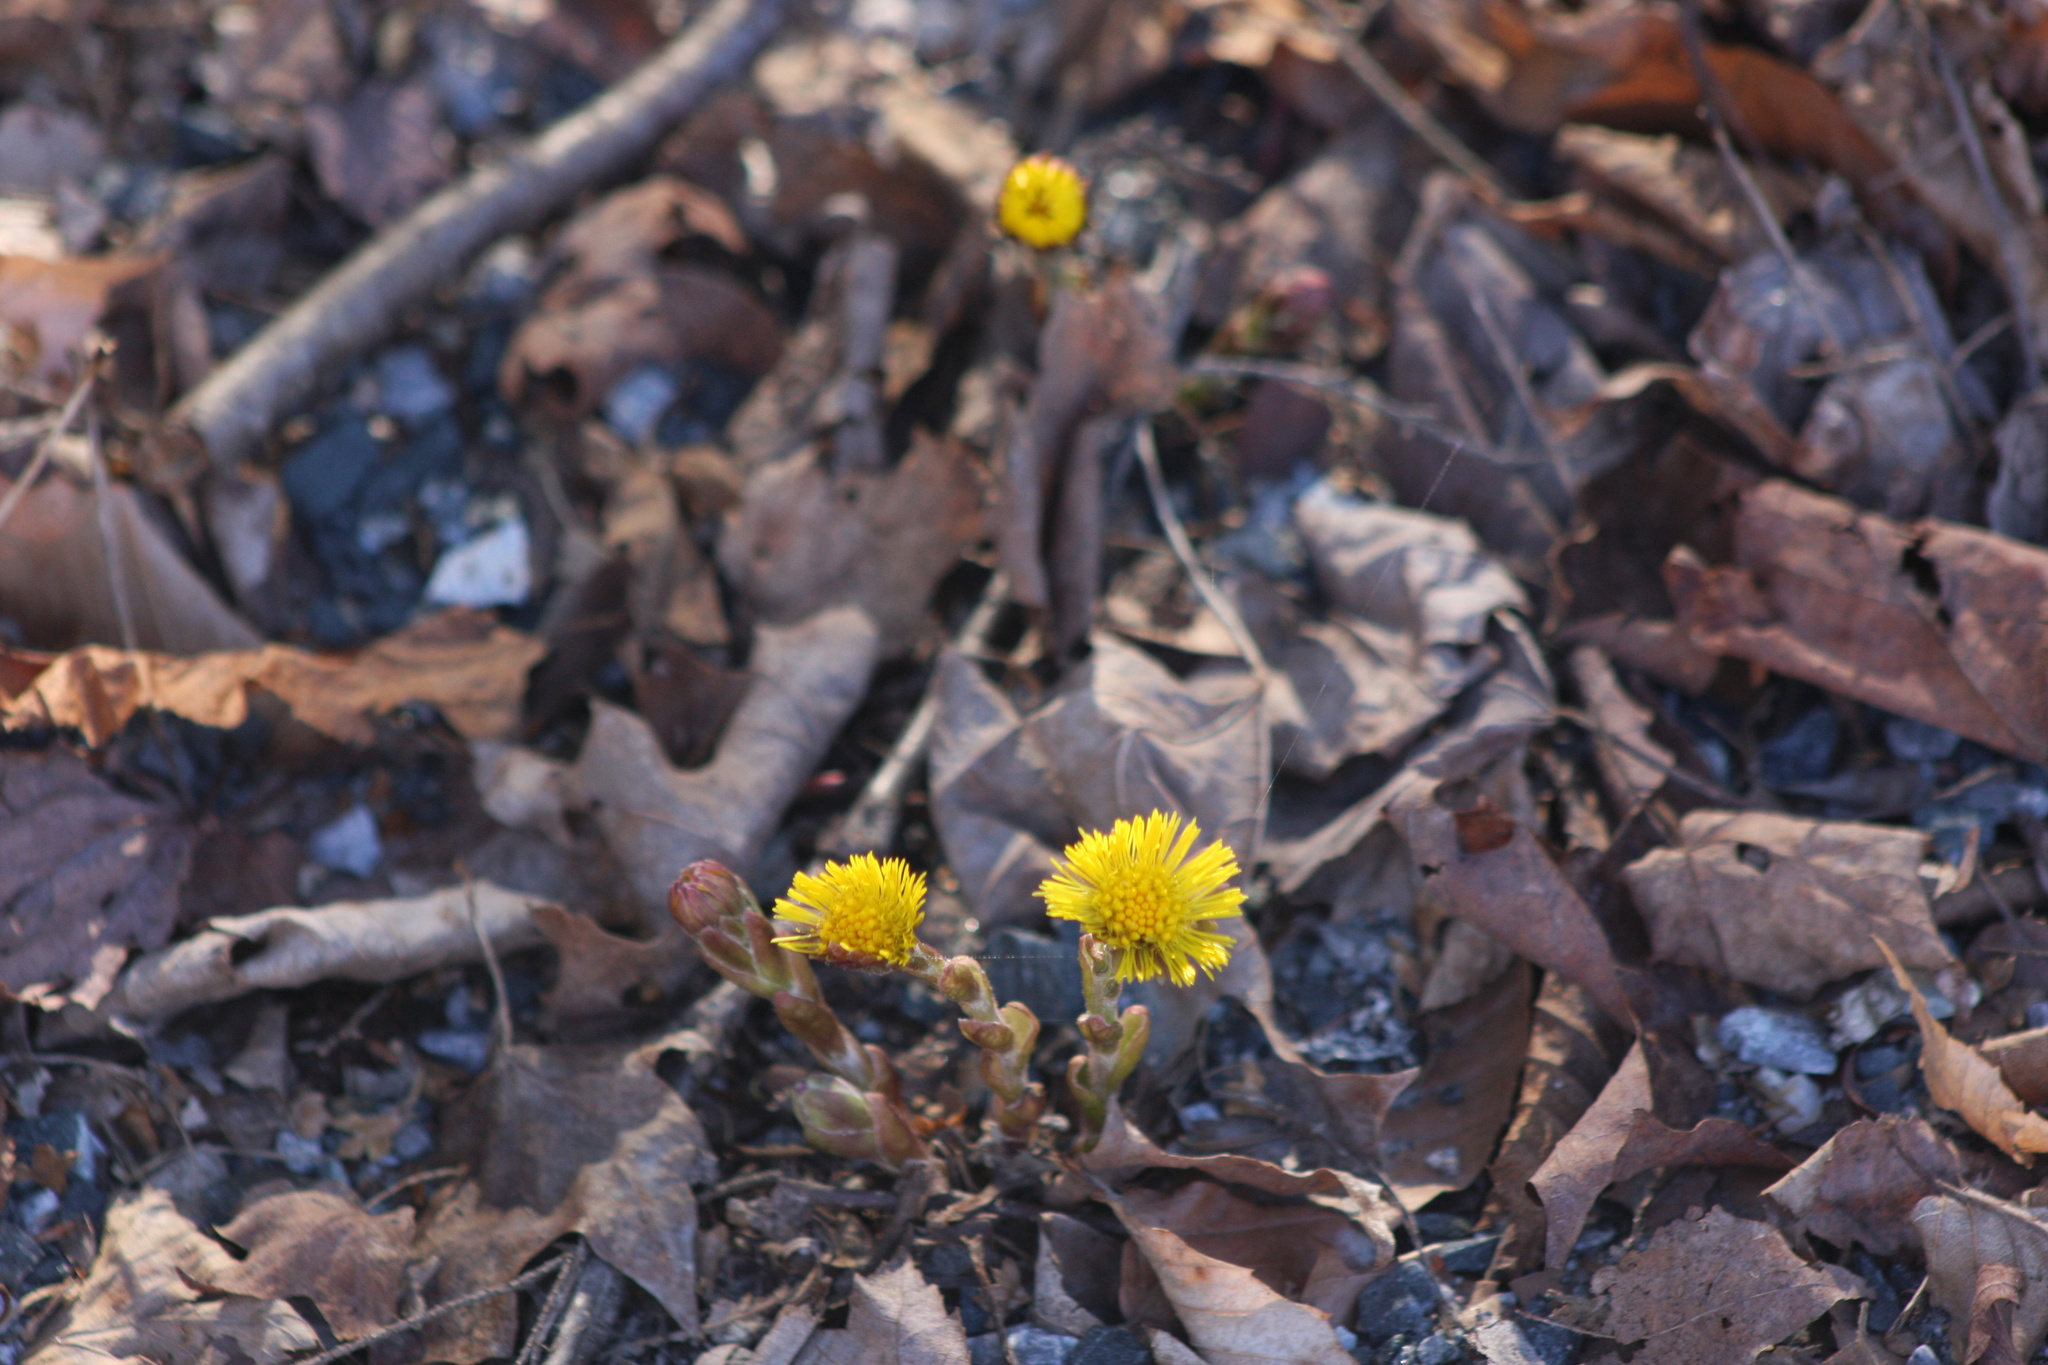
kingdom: Plantae
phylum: Tracheophyta
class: Magnoliopsida
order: Asterales
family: Asteraceae
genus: Tussilago
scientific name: Tussilago farfara
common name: Coltsfoot
